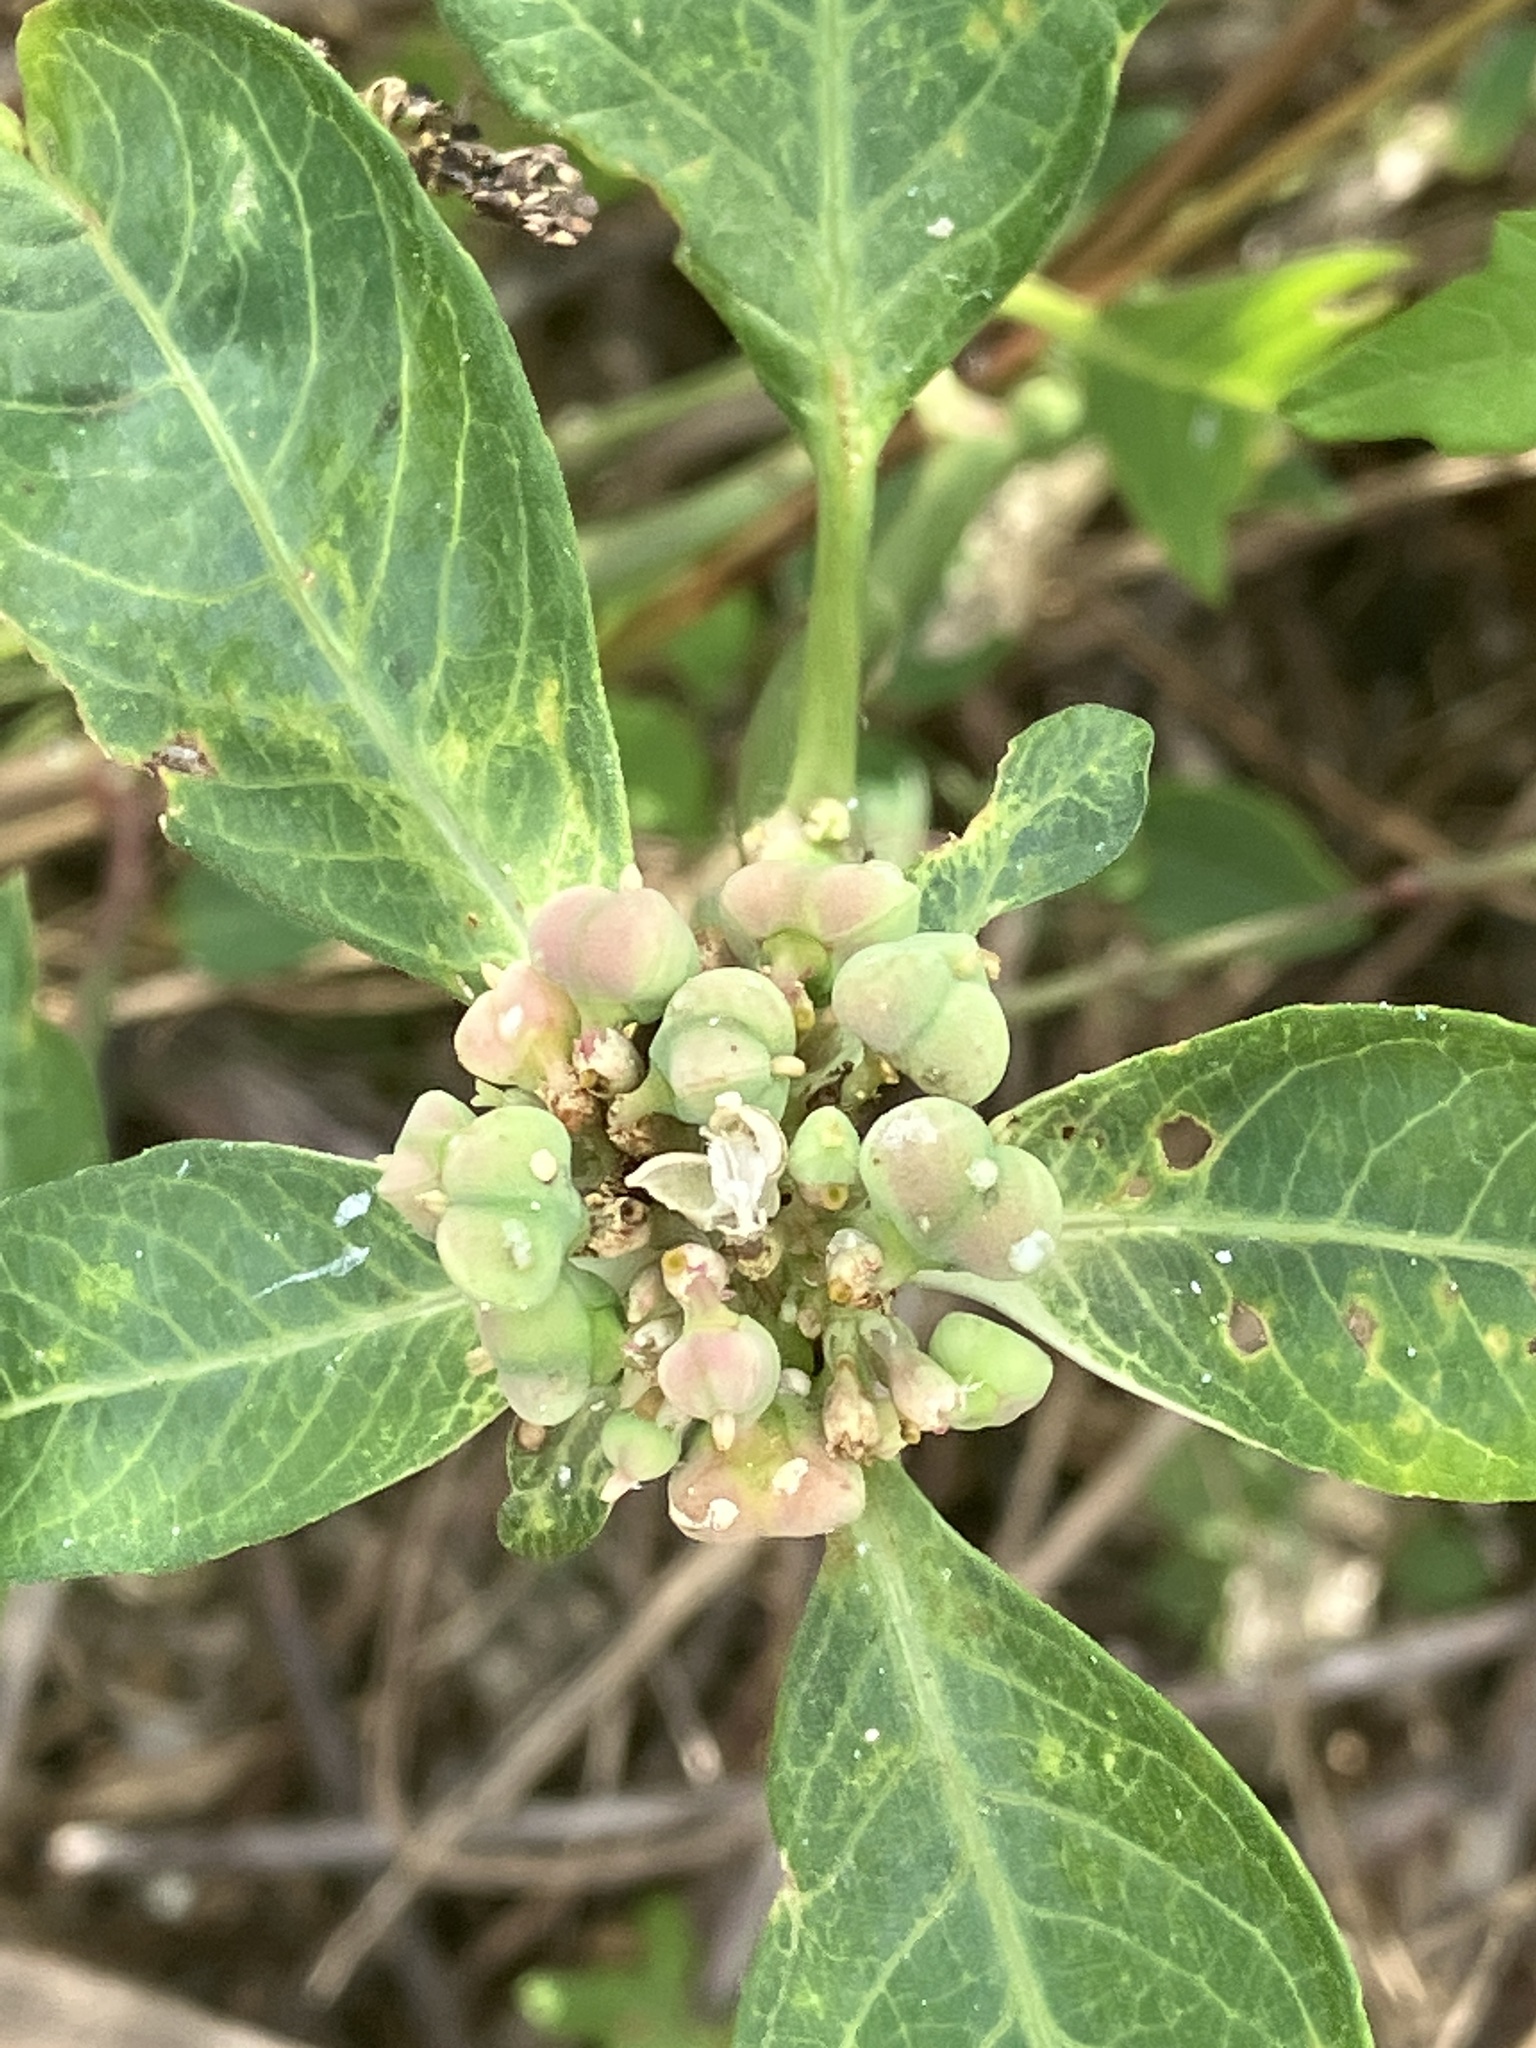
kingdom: Plantae
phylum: Tracheophyta
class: Magnoliopsida
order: Malpighiales
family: Euphorbiaceae
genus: Euphorbia
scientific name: Euphorbia heterophylla
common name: Mexican fireplant
